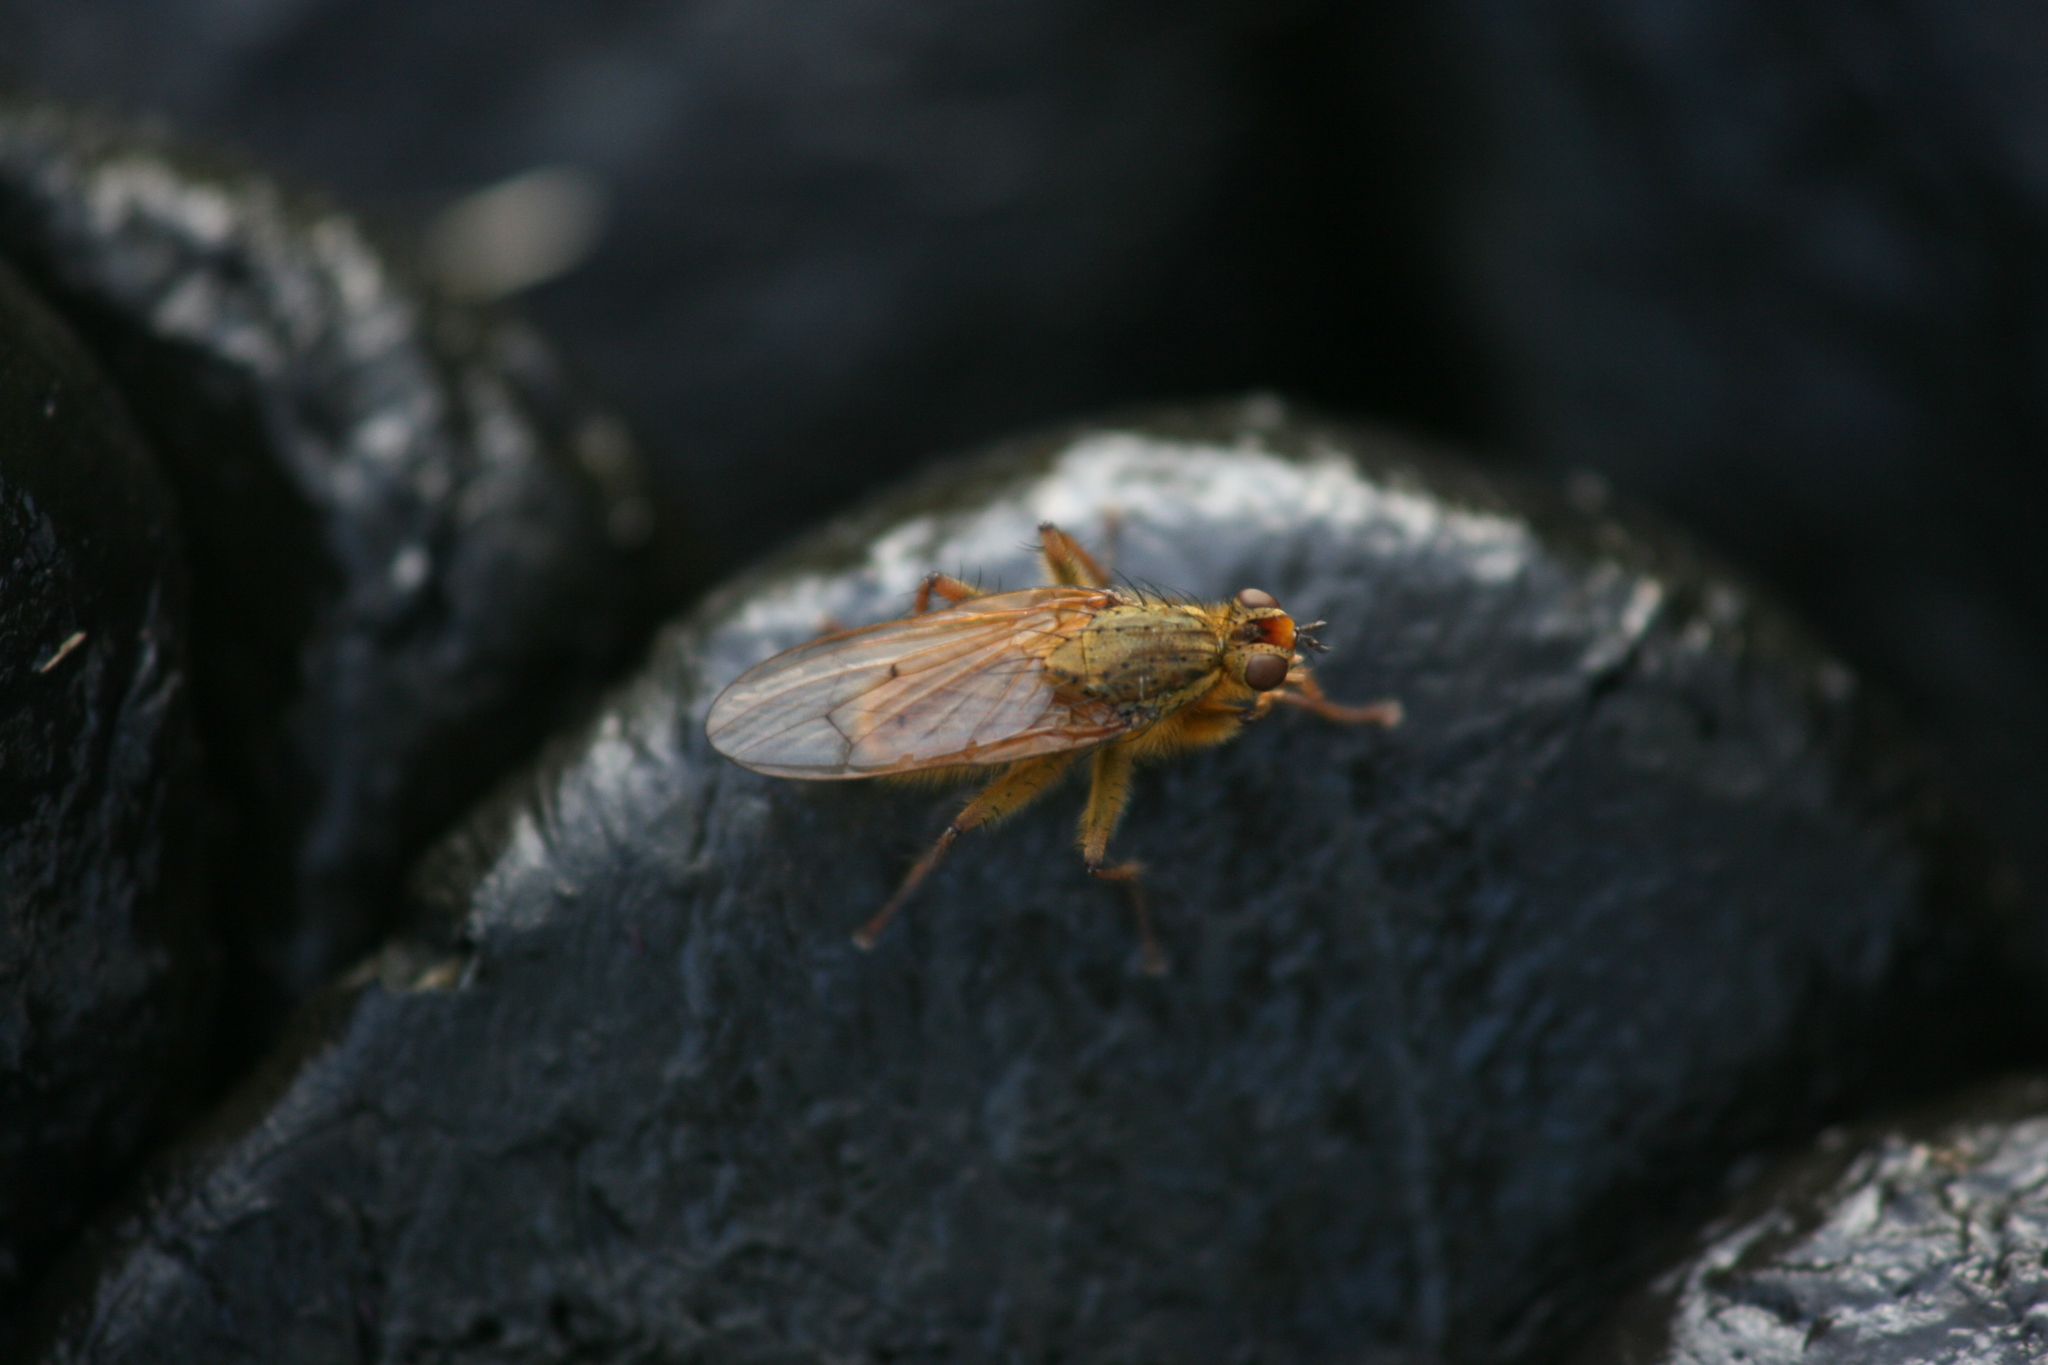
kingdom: Animalia
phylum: Arthropoda
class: Insecta
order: Diptera
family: Scathophagidae
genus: Scathophaga
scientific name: Scathophaga stercoraria
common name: Yellow dung fly
